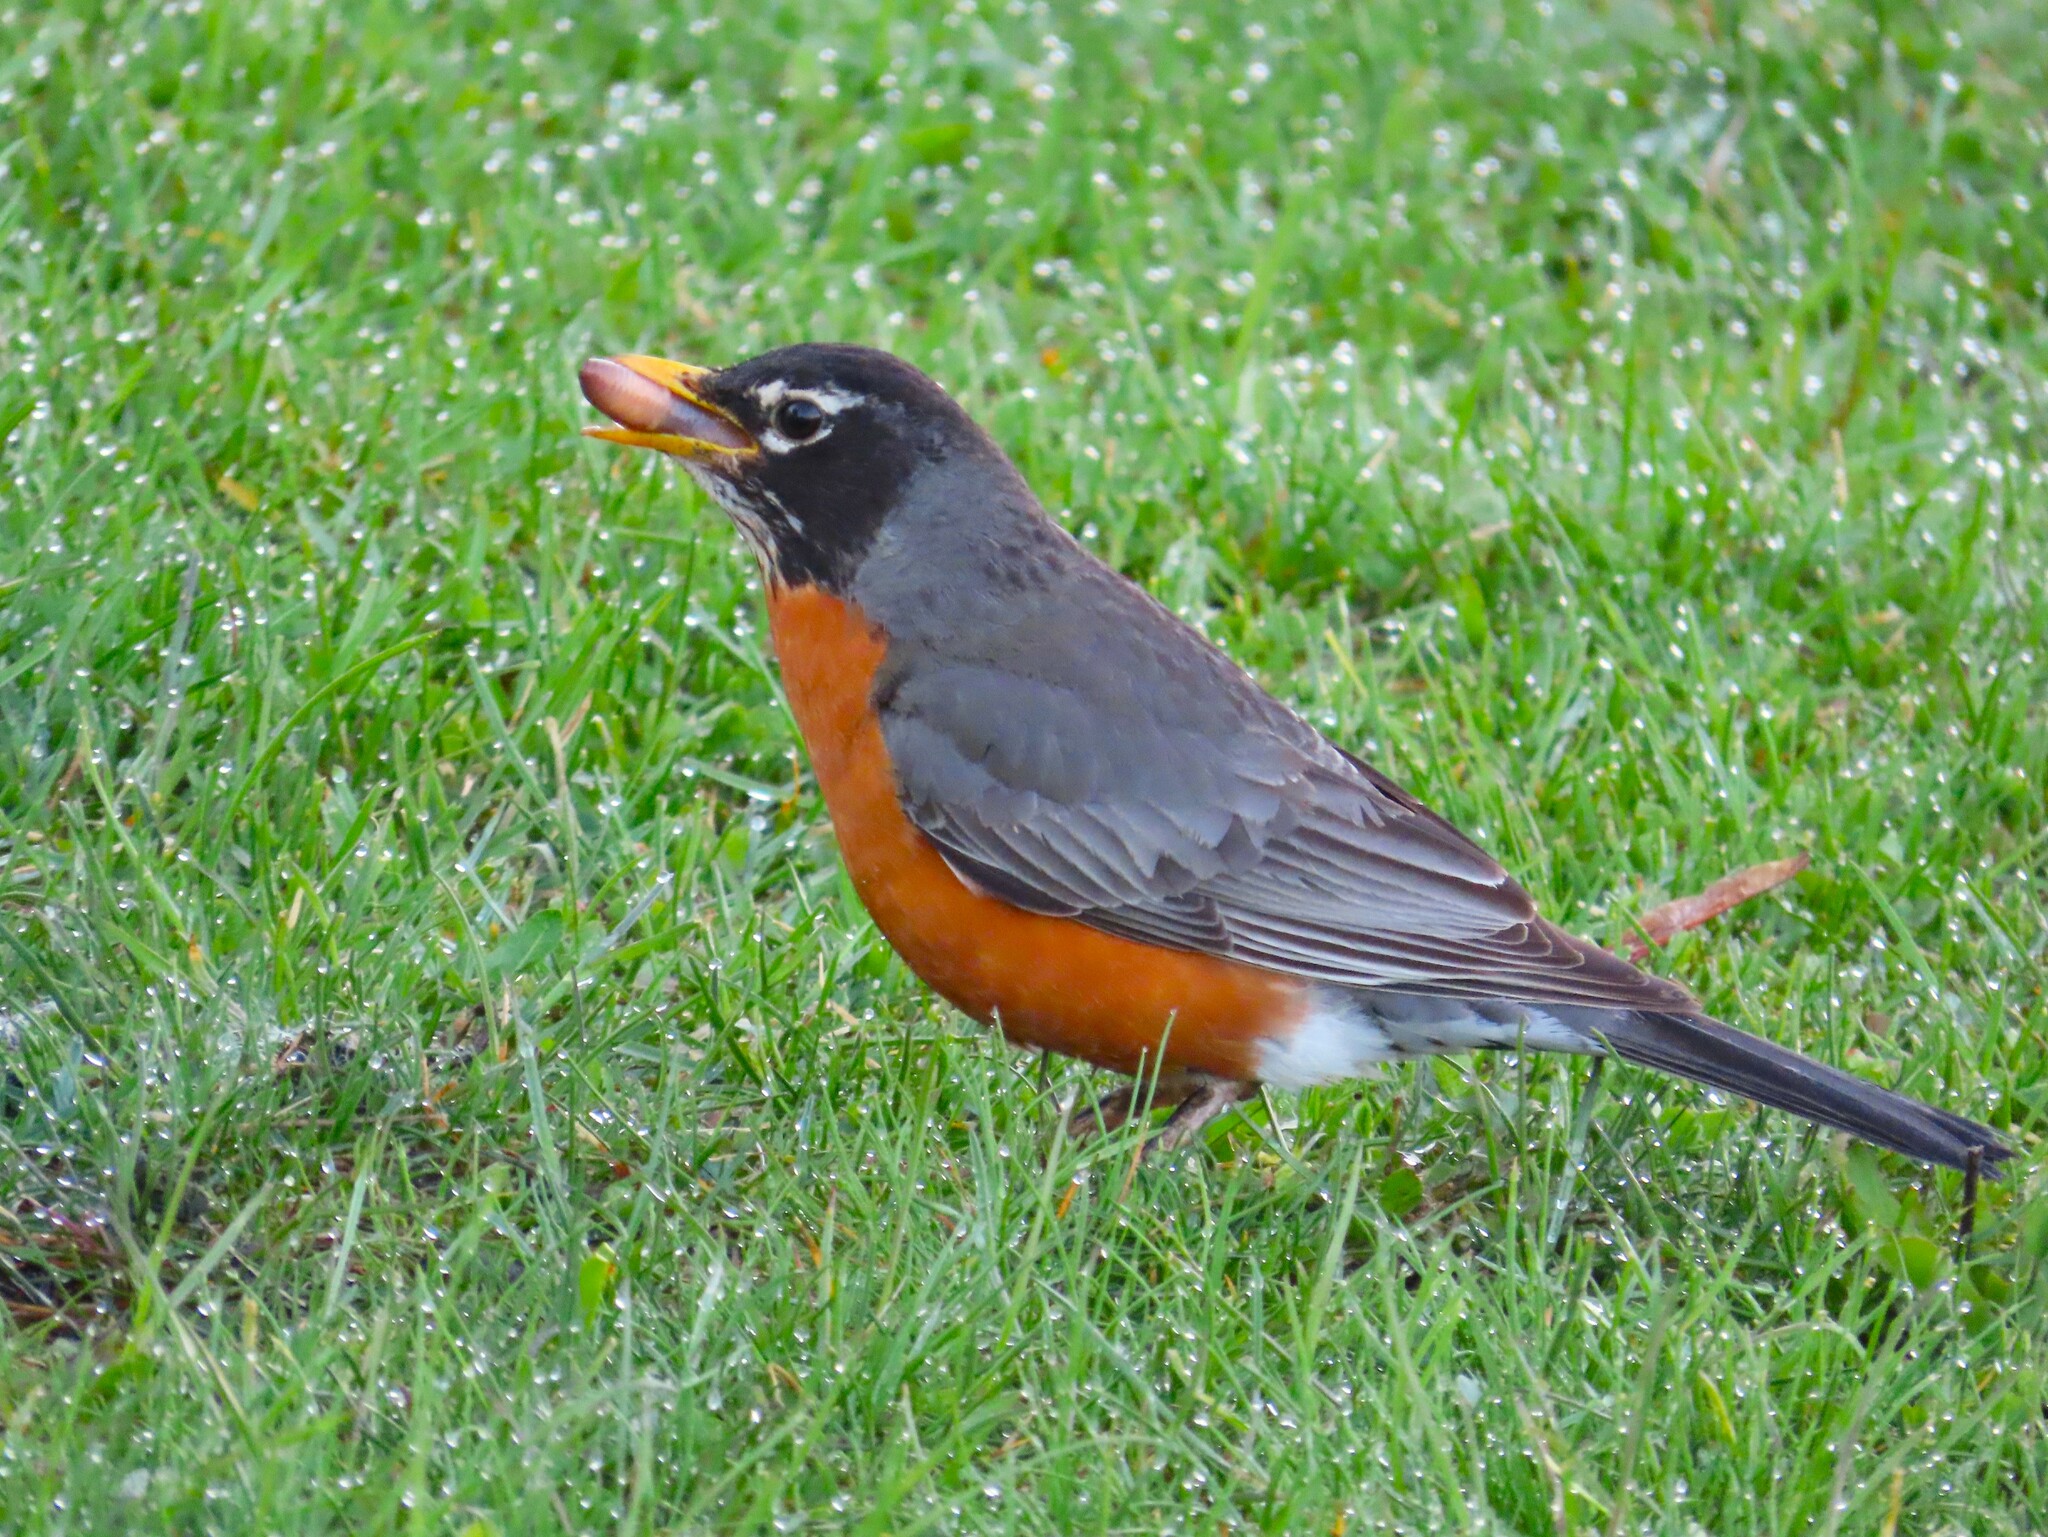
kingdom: Animalia
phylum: Chordata
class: Aves
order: Passeriformes
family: Turdidae
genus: Turdus
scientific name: Turdus migratorius
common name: American robin
